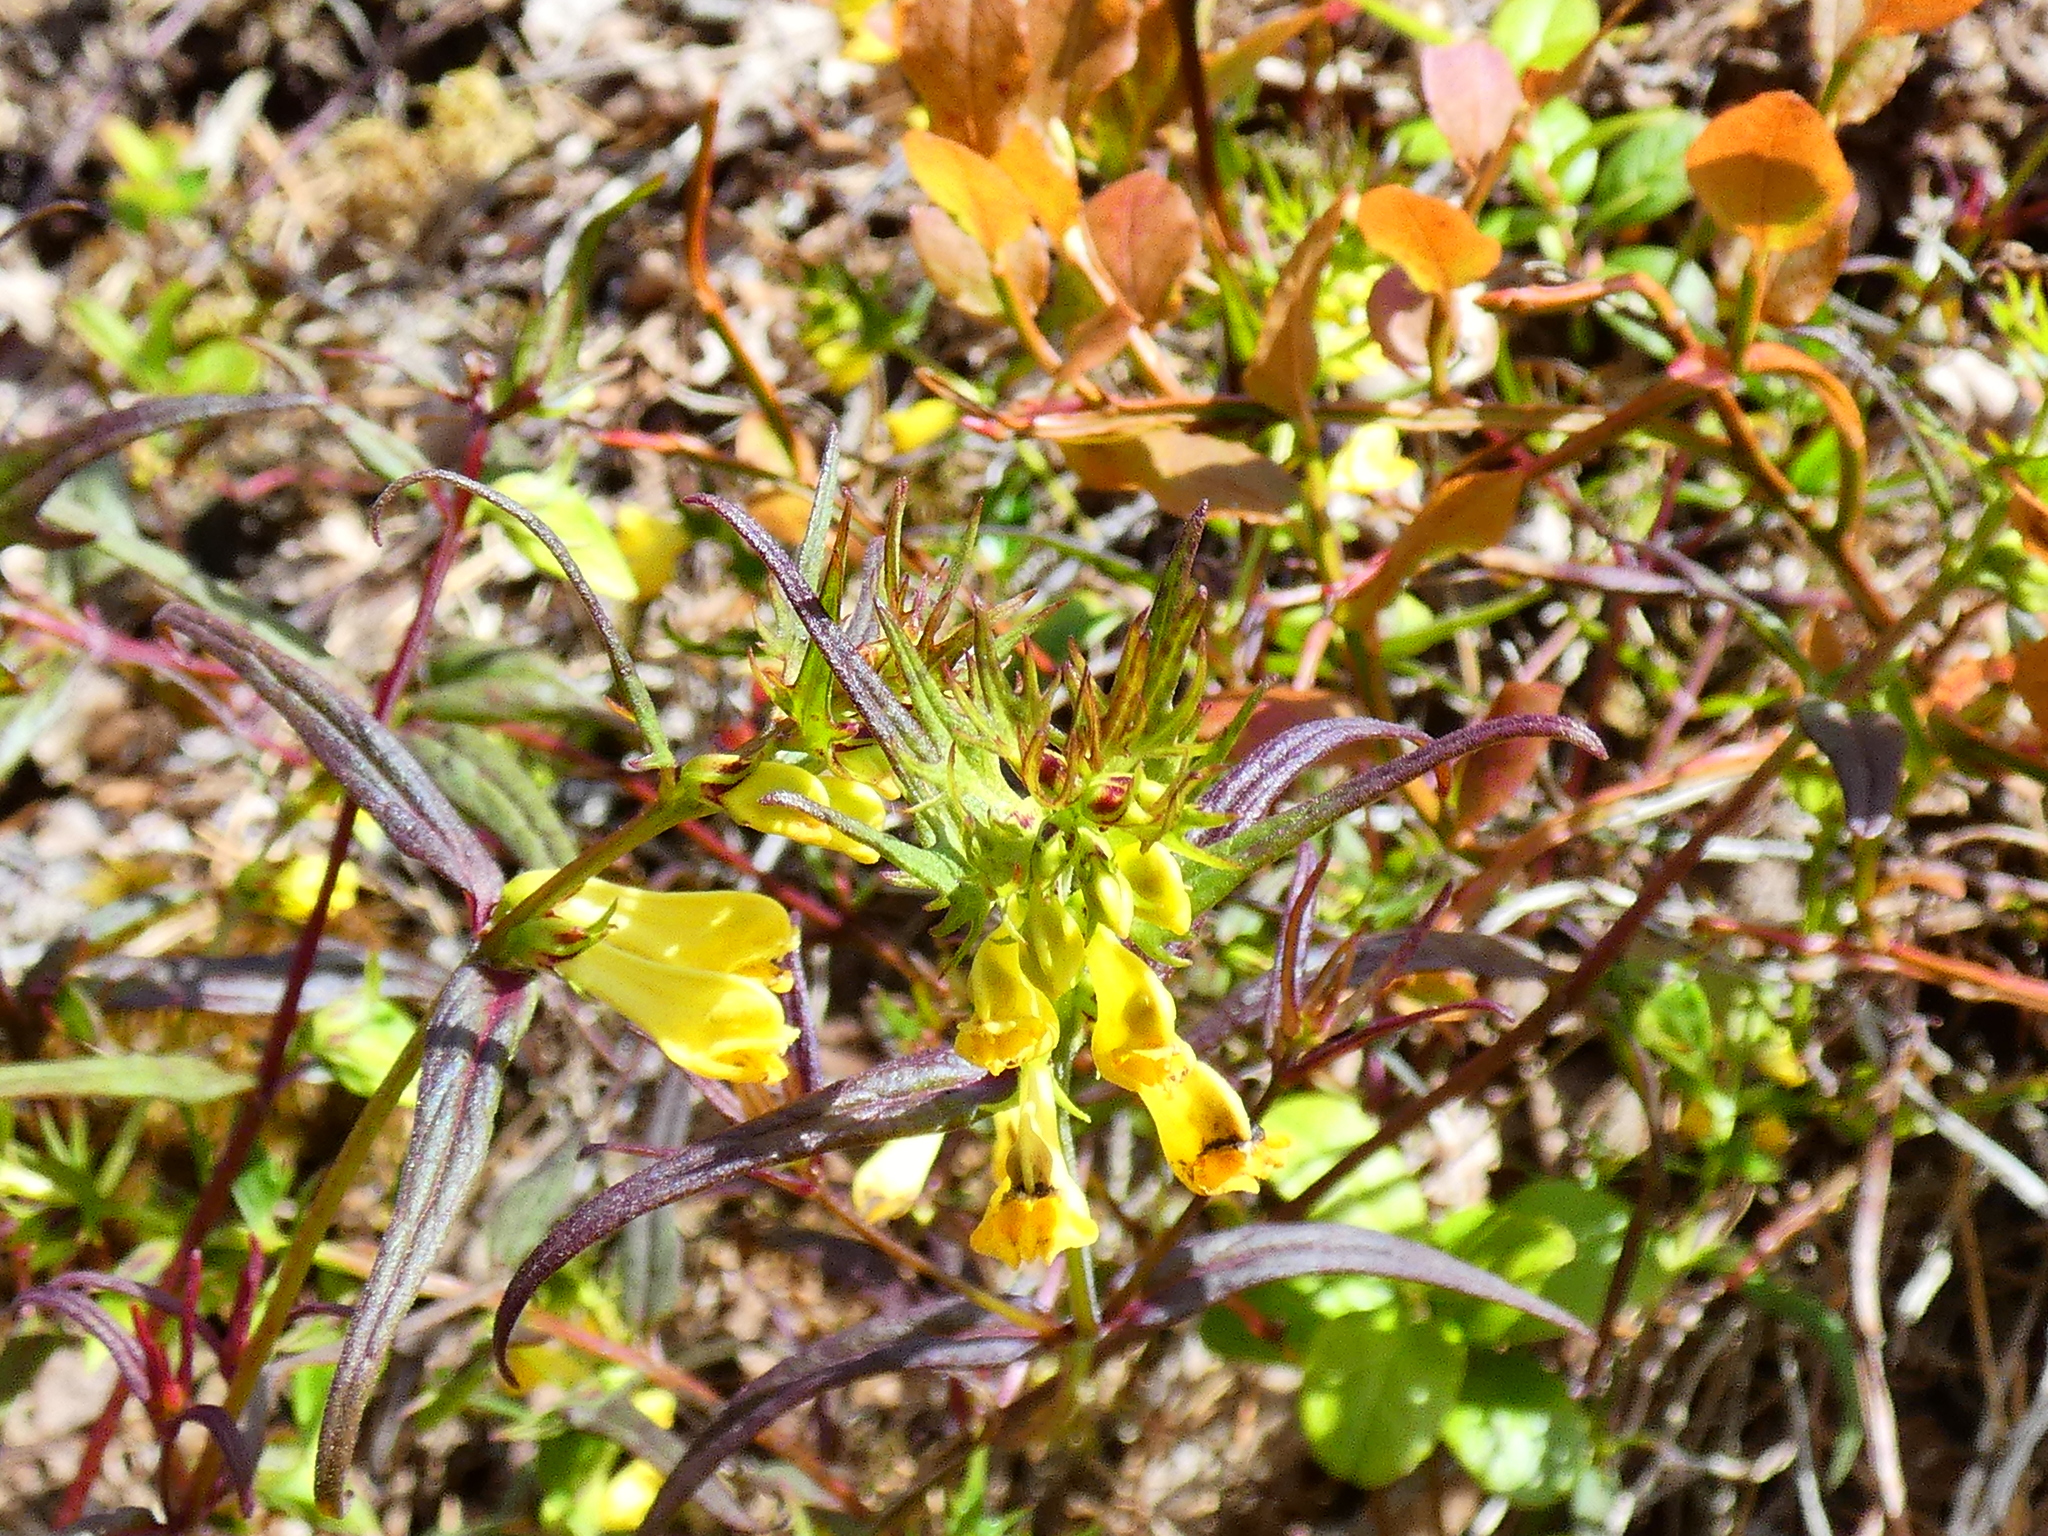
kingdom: Plantae
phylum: Tracheophyta
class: Magnoliopsida
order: Lamiales
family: Orobanchaceae
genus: Melampyrum
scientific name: Melampyrum pratense
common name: Common cow-wheat
